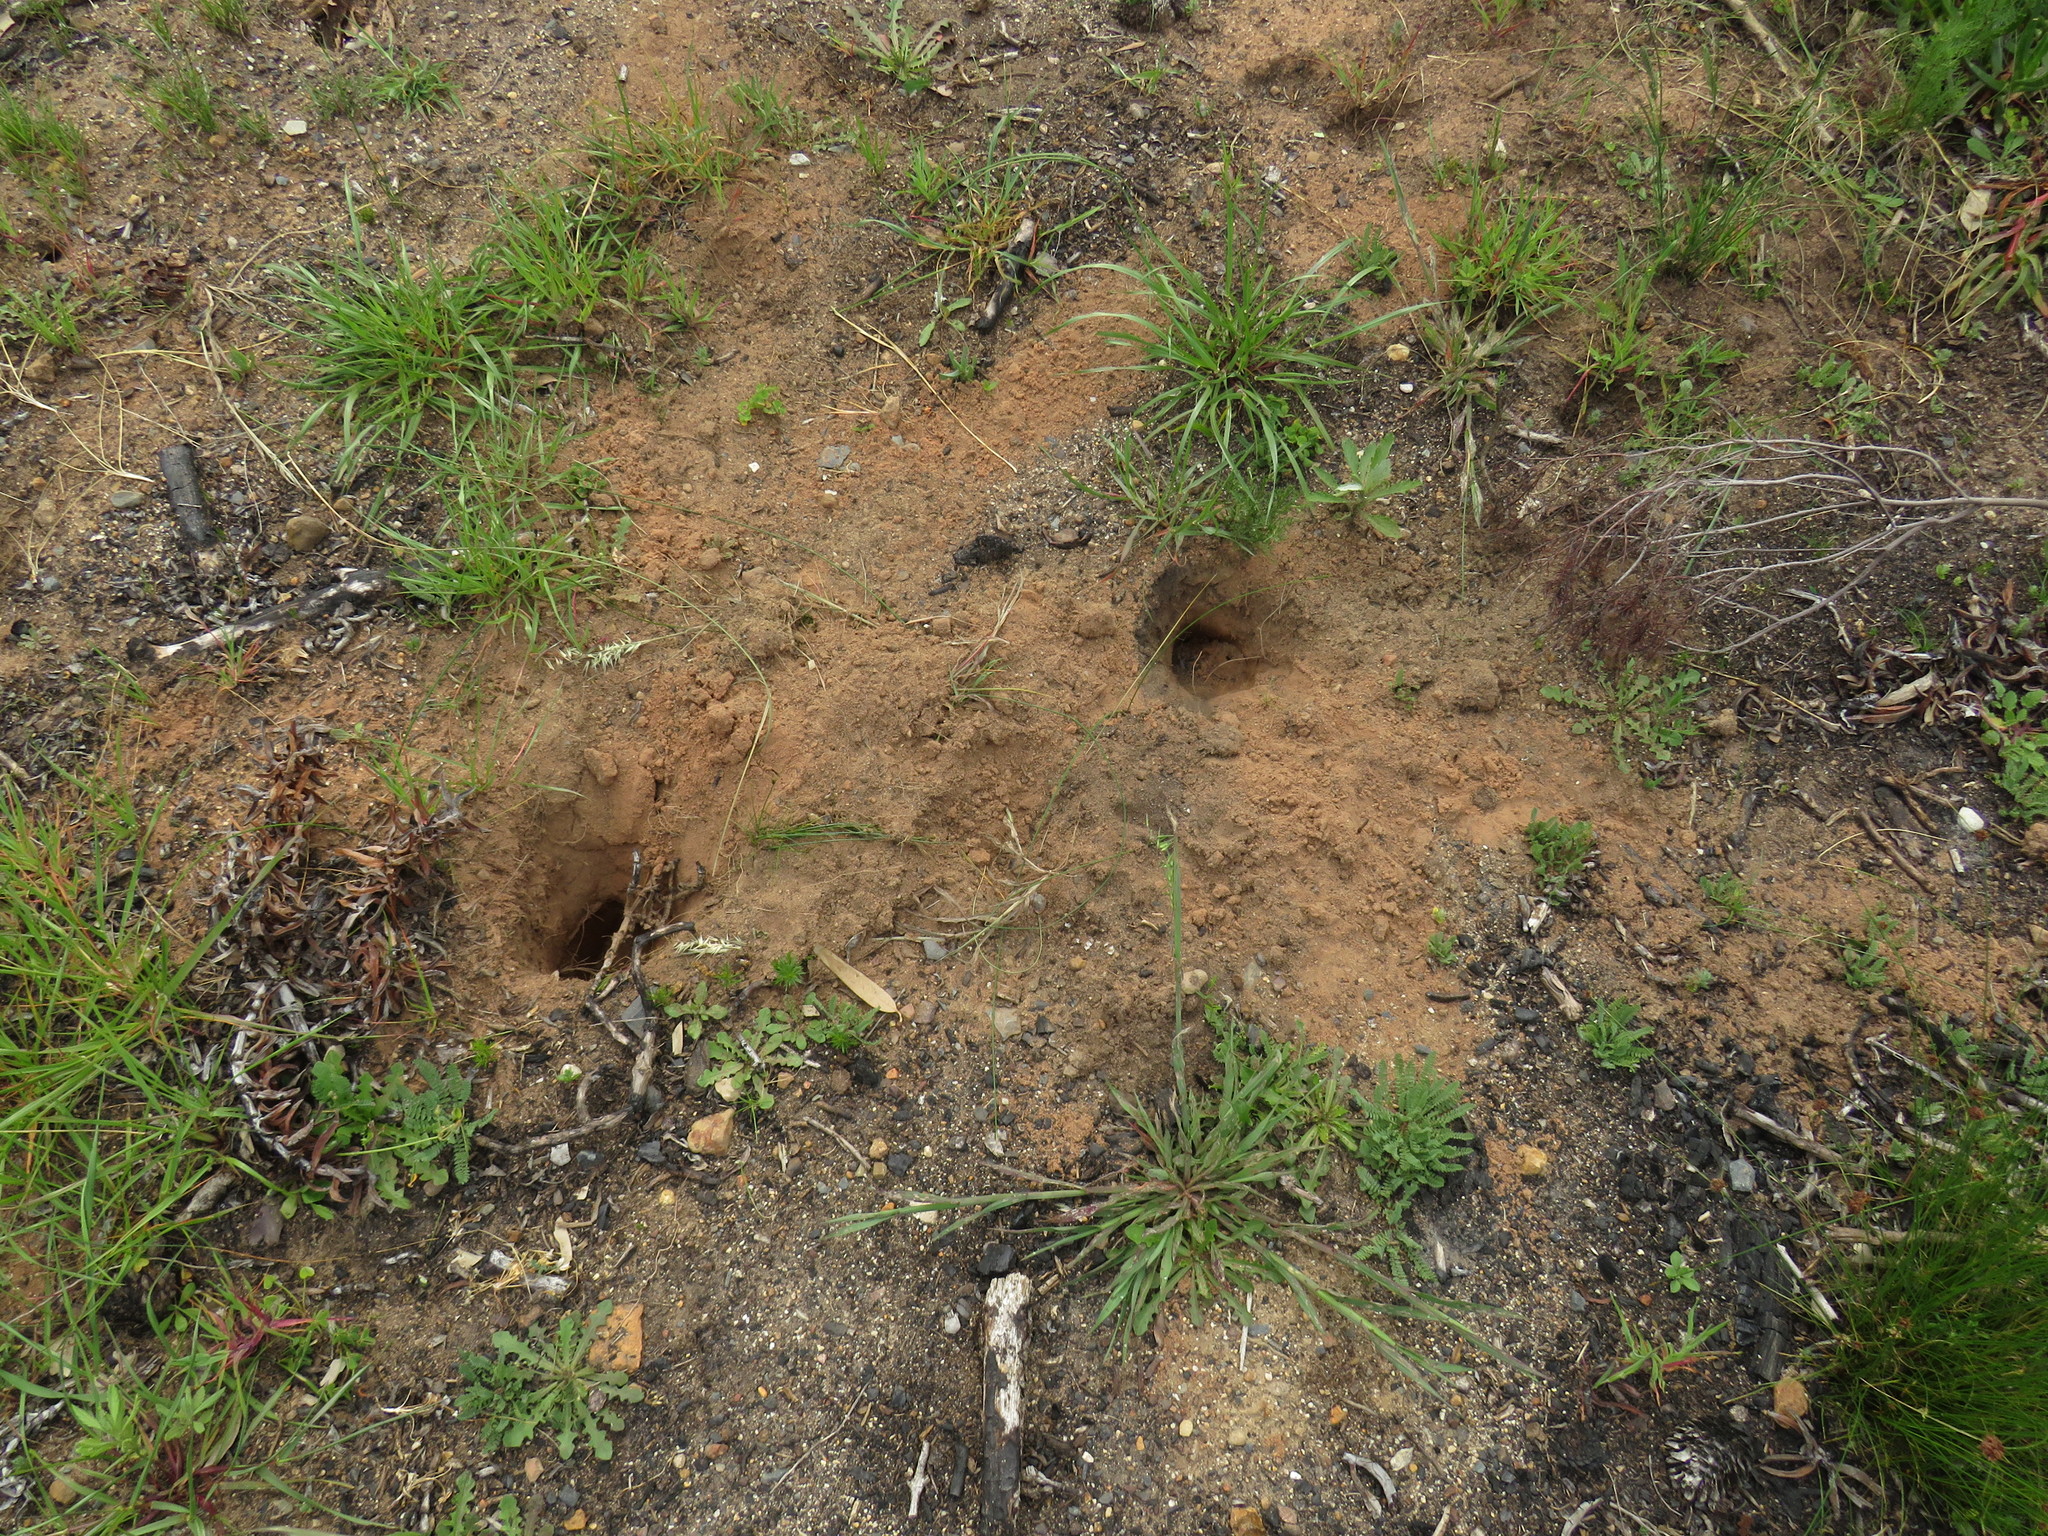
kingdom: Animalia
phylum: Chordata
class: Mammalia
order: Primates
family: Cercopithecidae
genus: Papio
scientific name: Papio ursinus
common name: Chacma baboon
